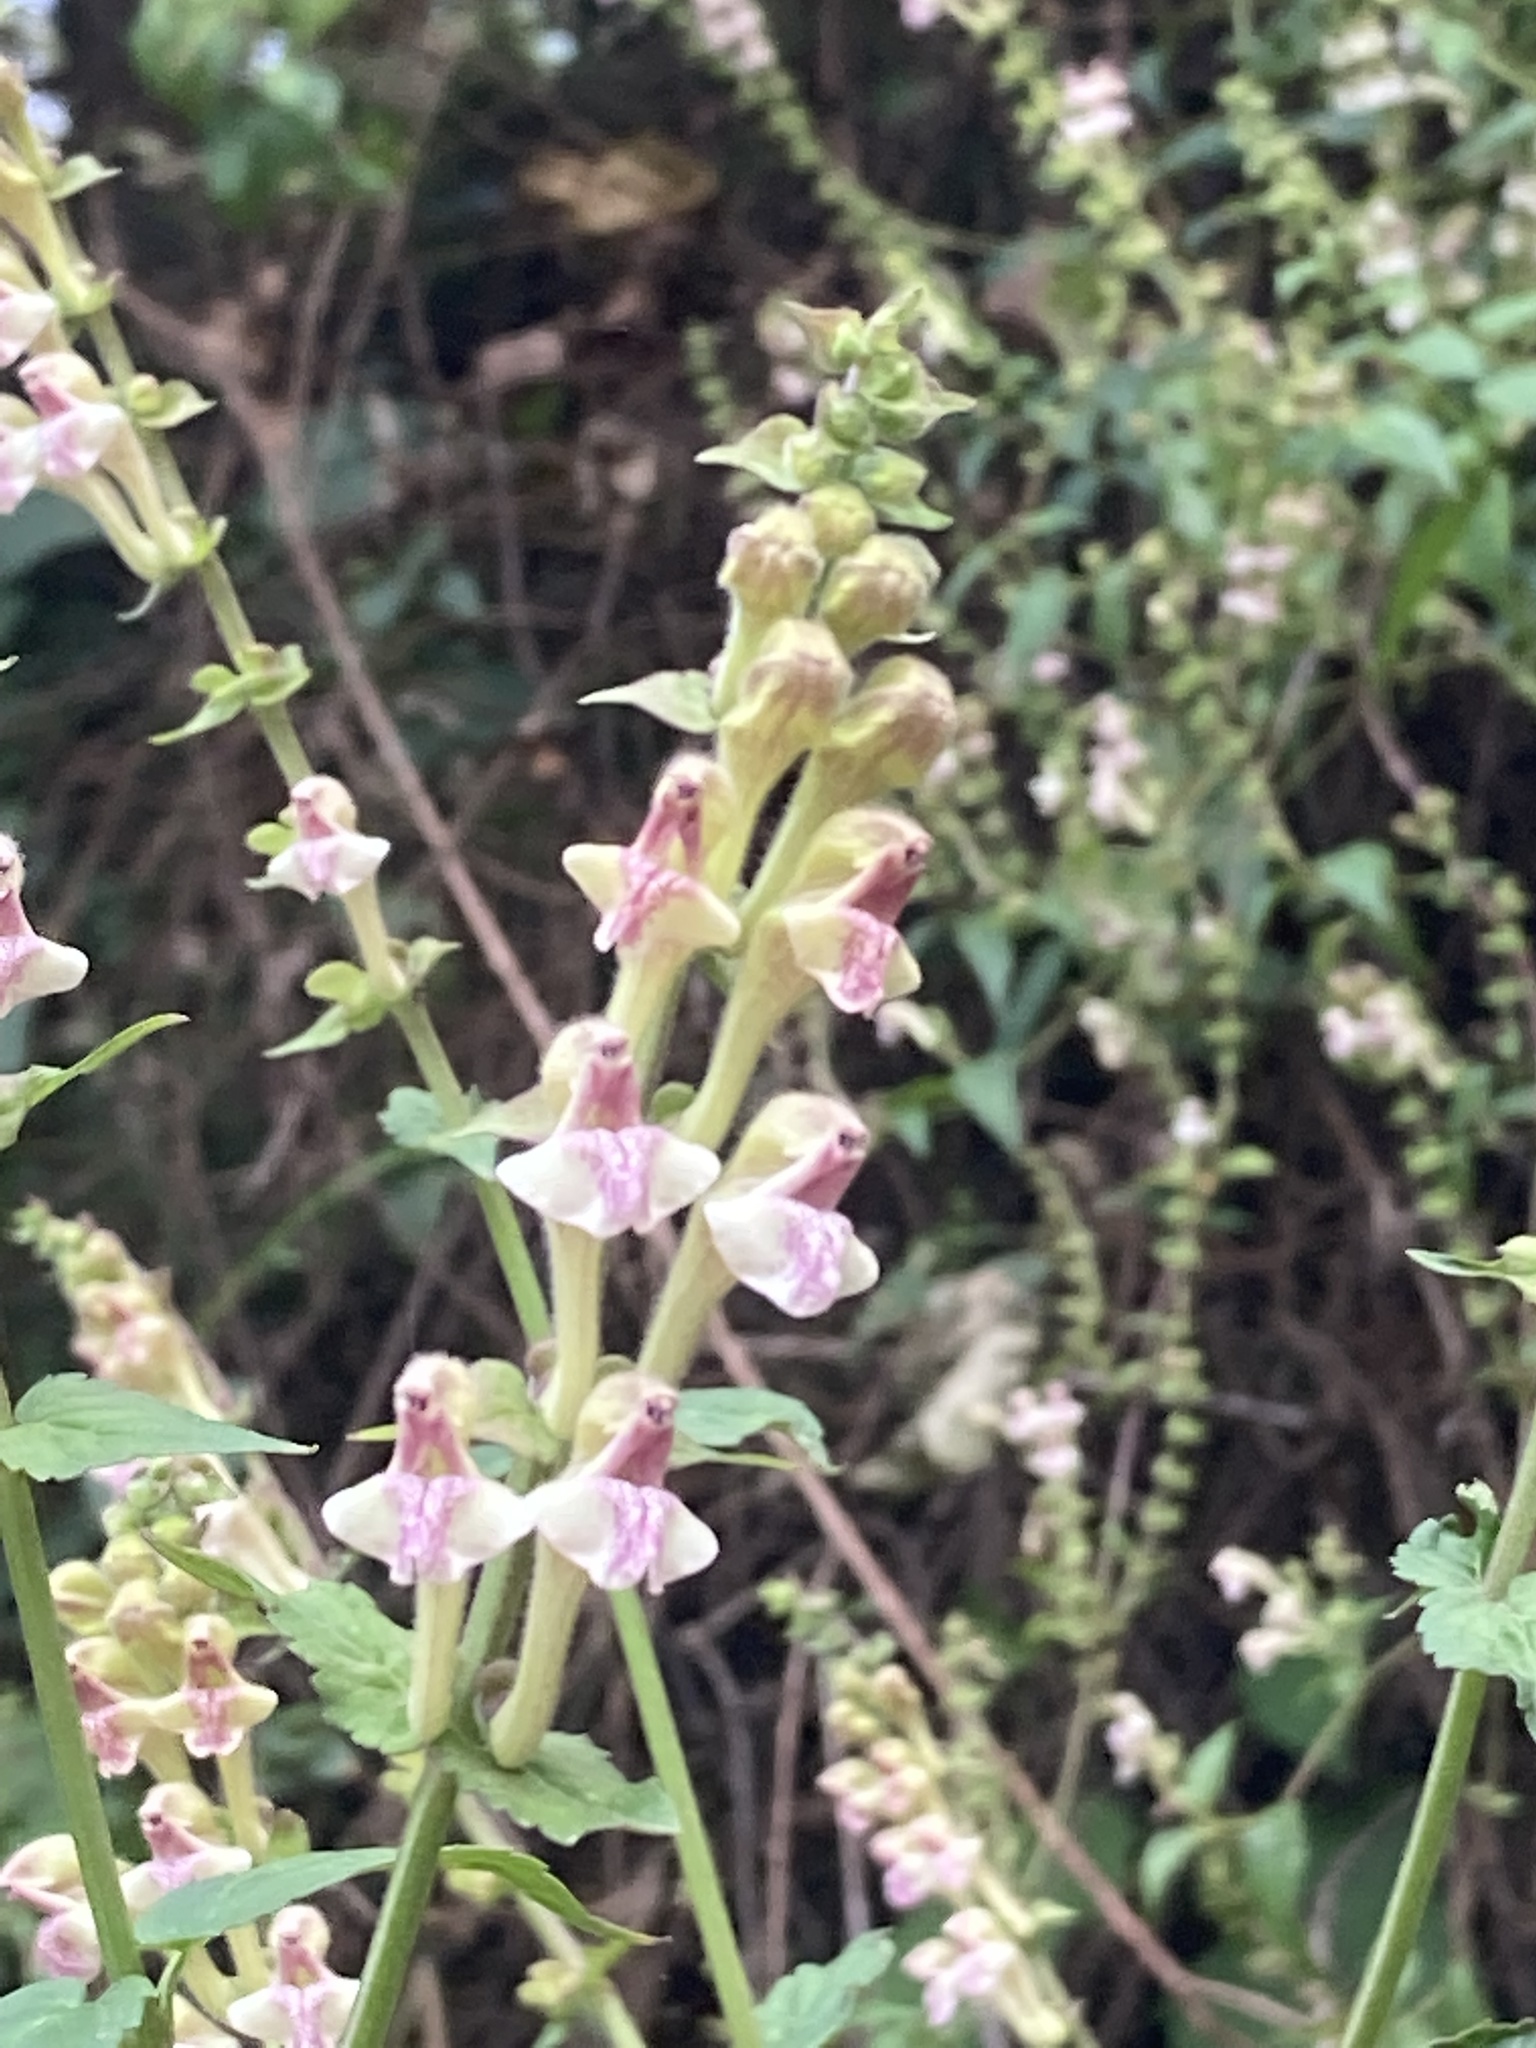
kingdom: Plantae
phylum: Tracheophyta
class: Magnoliopsida
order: Lamiales
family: Lamiaceae
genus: Scutellaria
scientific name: Scutellaria scandens
